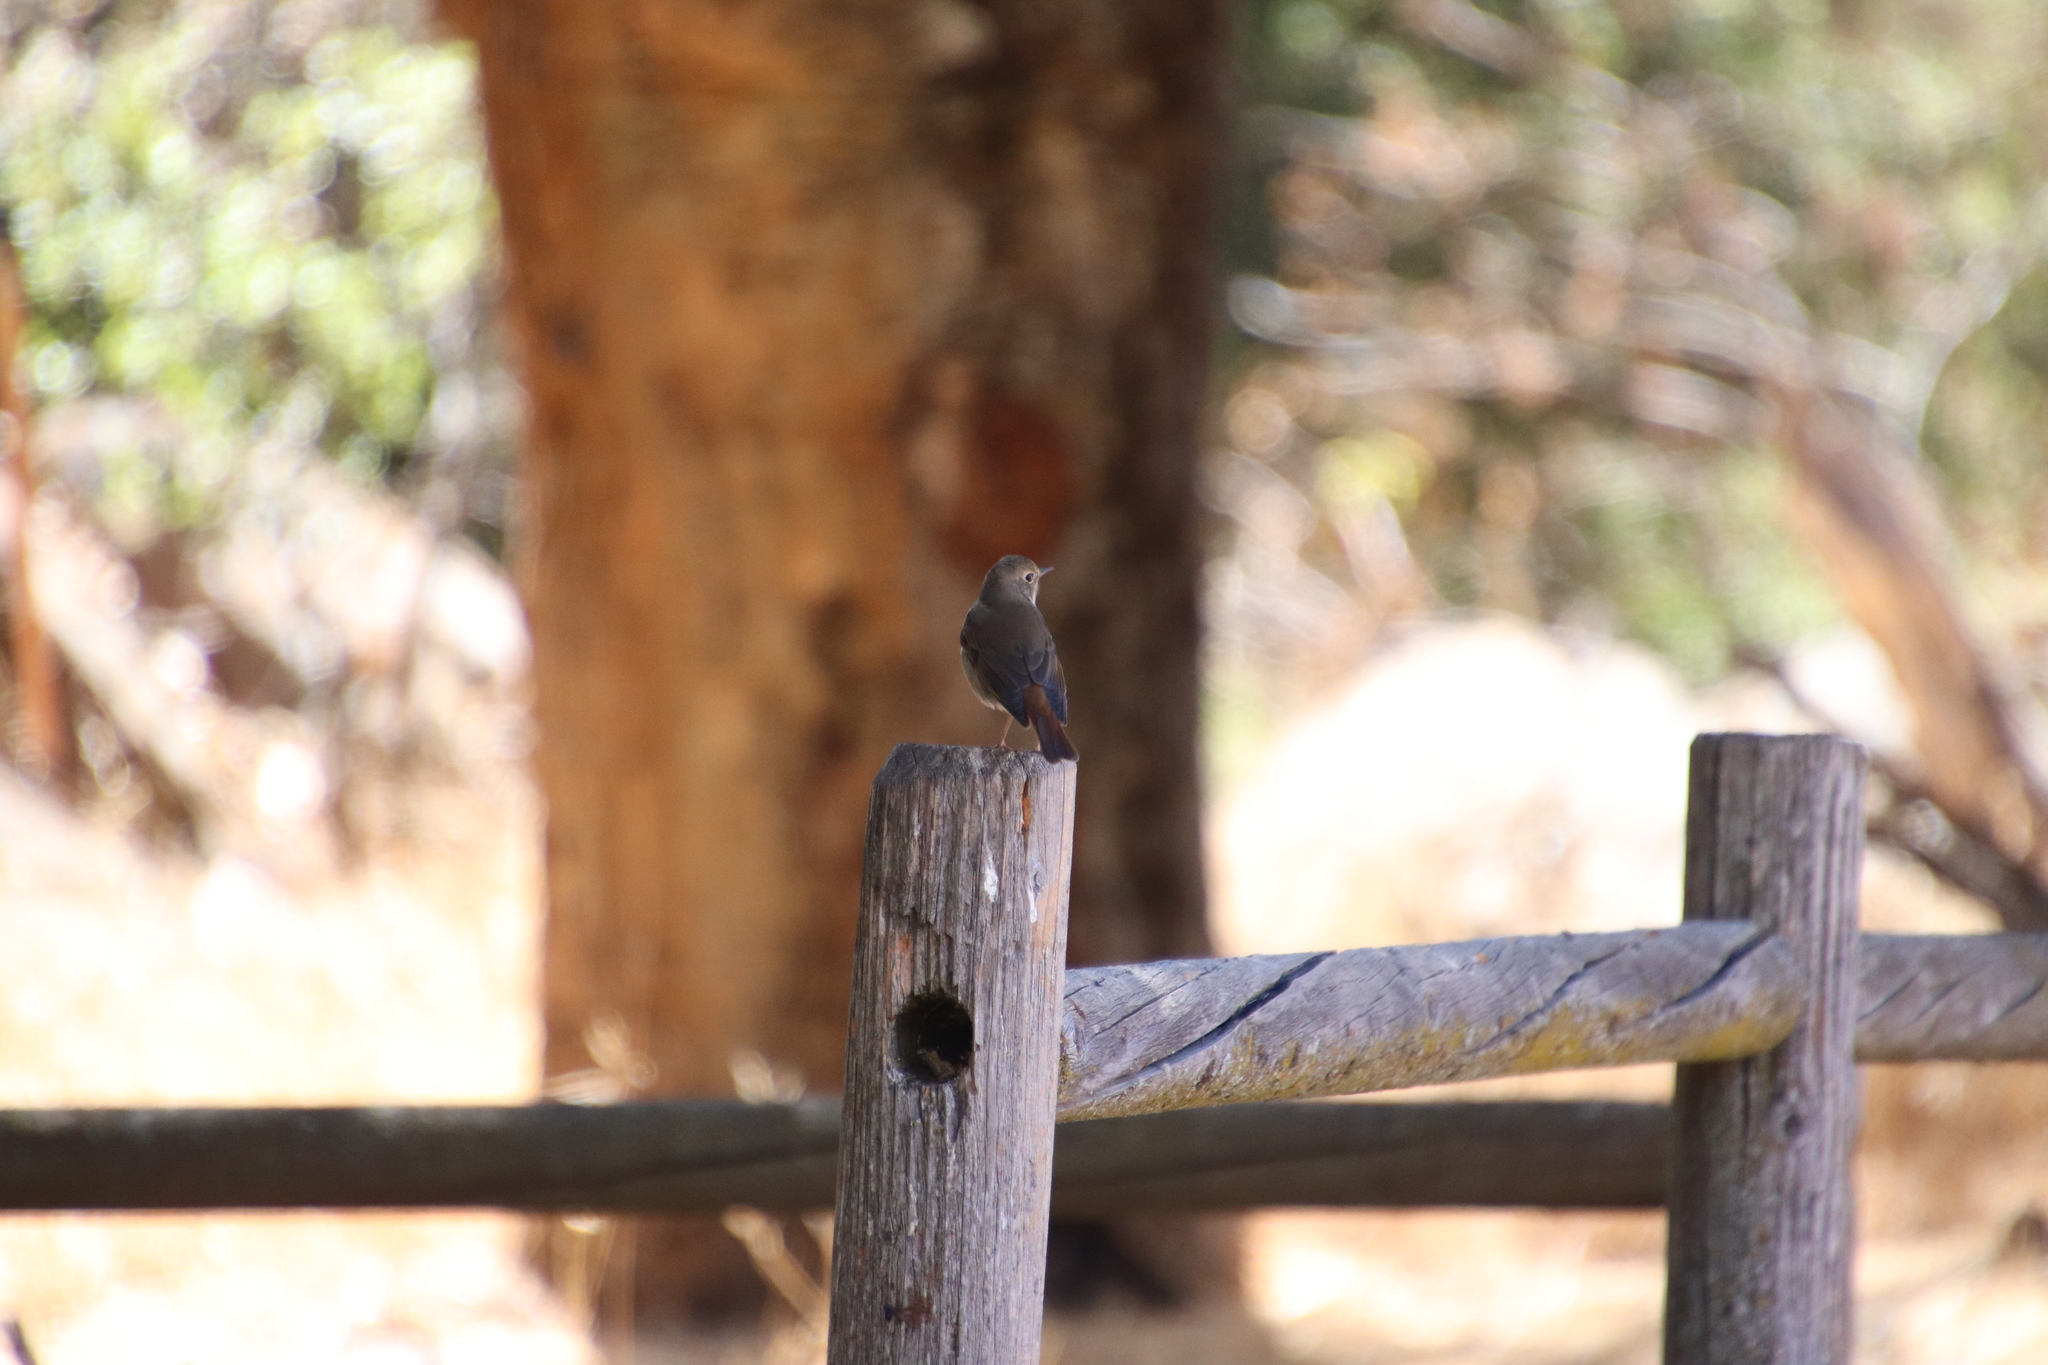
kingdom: Animalia
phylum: Chordata
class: Aves
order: Passeriformes
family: Turdidae
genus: Catharus
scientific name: Catharus guttatus
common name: Hermit thrush
